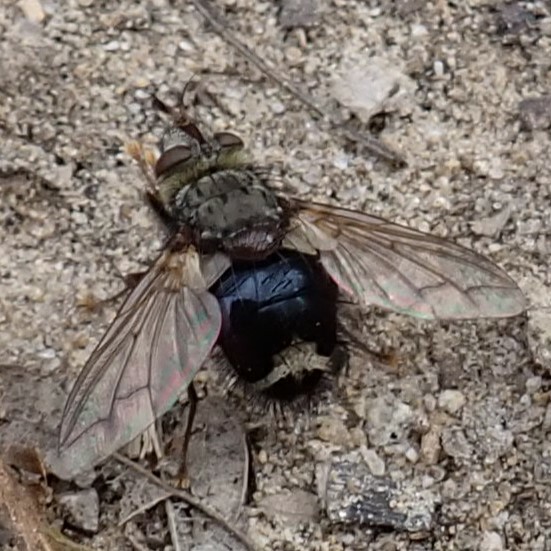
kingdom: Animalia
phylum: Arthropoda
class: Insecta
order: Diptera
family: Tachinidae
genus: Epalpus
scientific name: Epalpus signifer
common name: Early tachinid fly
